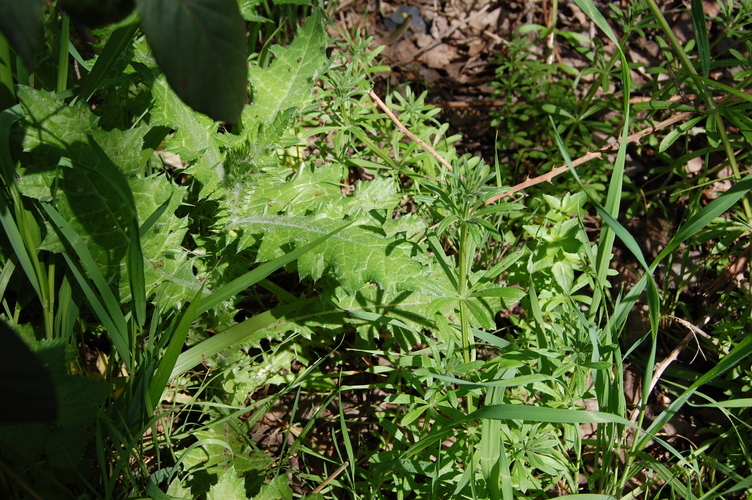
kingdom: Plantae
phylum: Tracheophyta
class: Magnoliopsida
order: Gentianales
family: Rubiaceae
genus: Galium
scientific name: Galium aparine
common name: Cleavers
